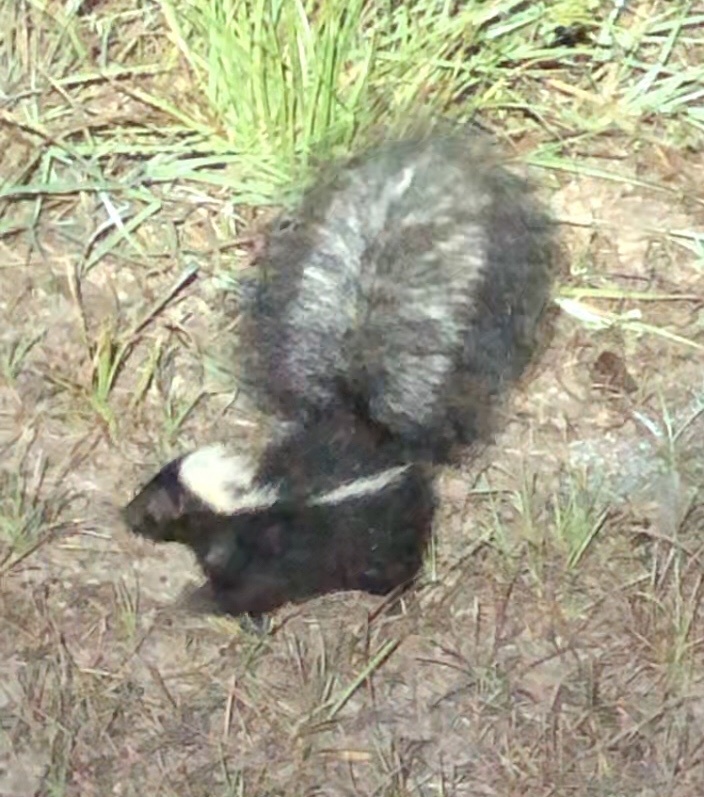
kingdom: Animalia
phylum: Chordata
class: Mammalia
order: Carnivora
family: Mephitidae
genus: Mephitis
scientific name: Mephitis mephitis
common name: Striped skunk
